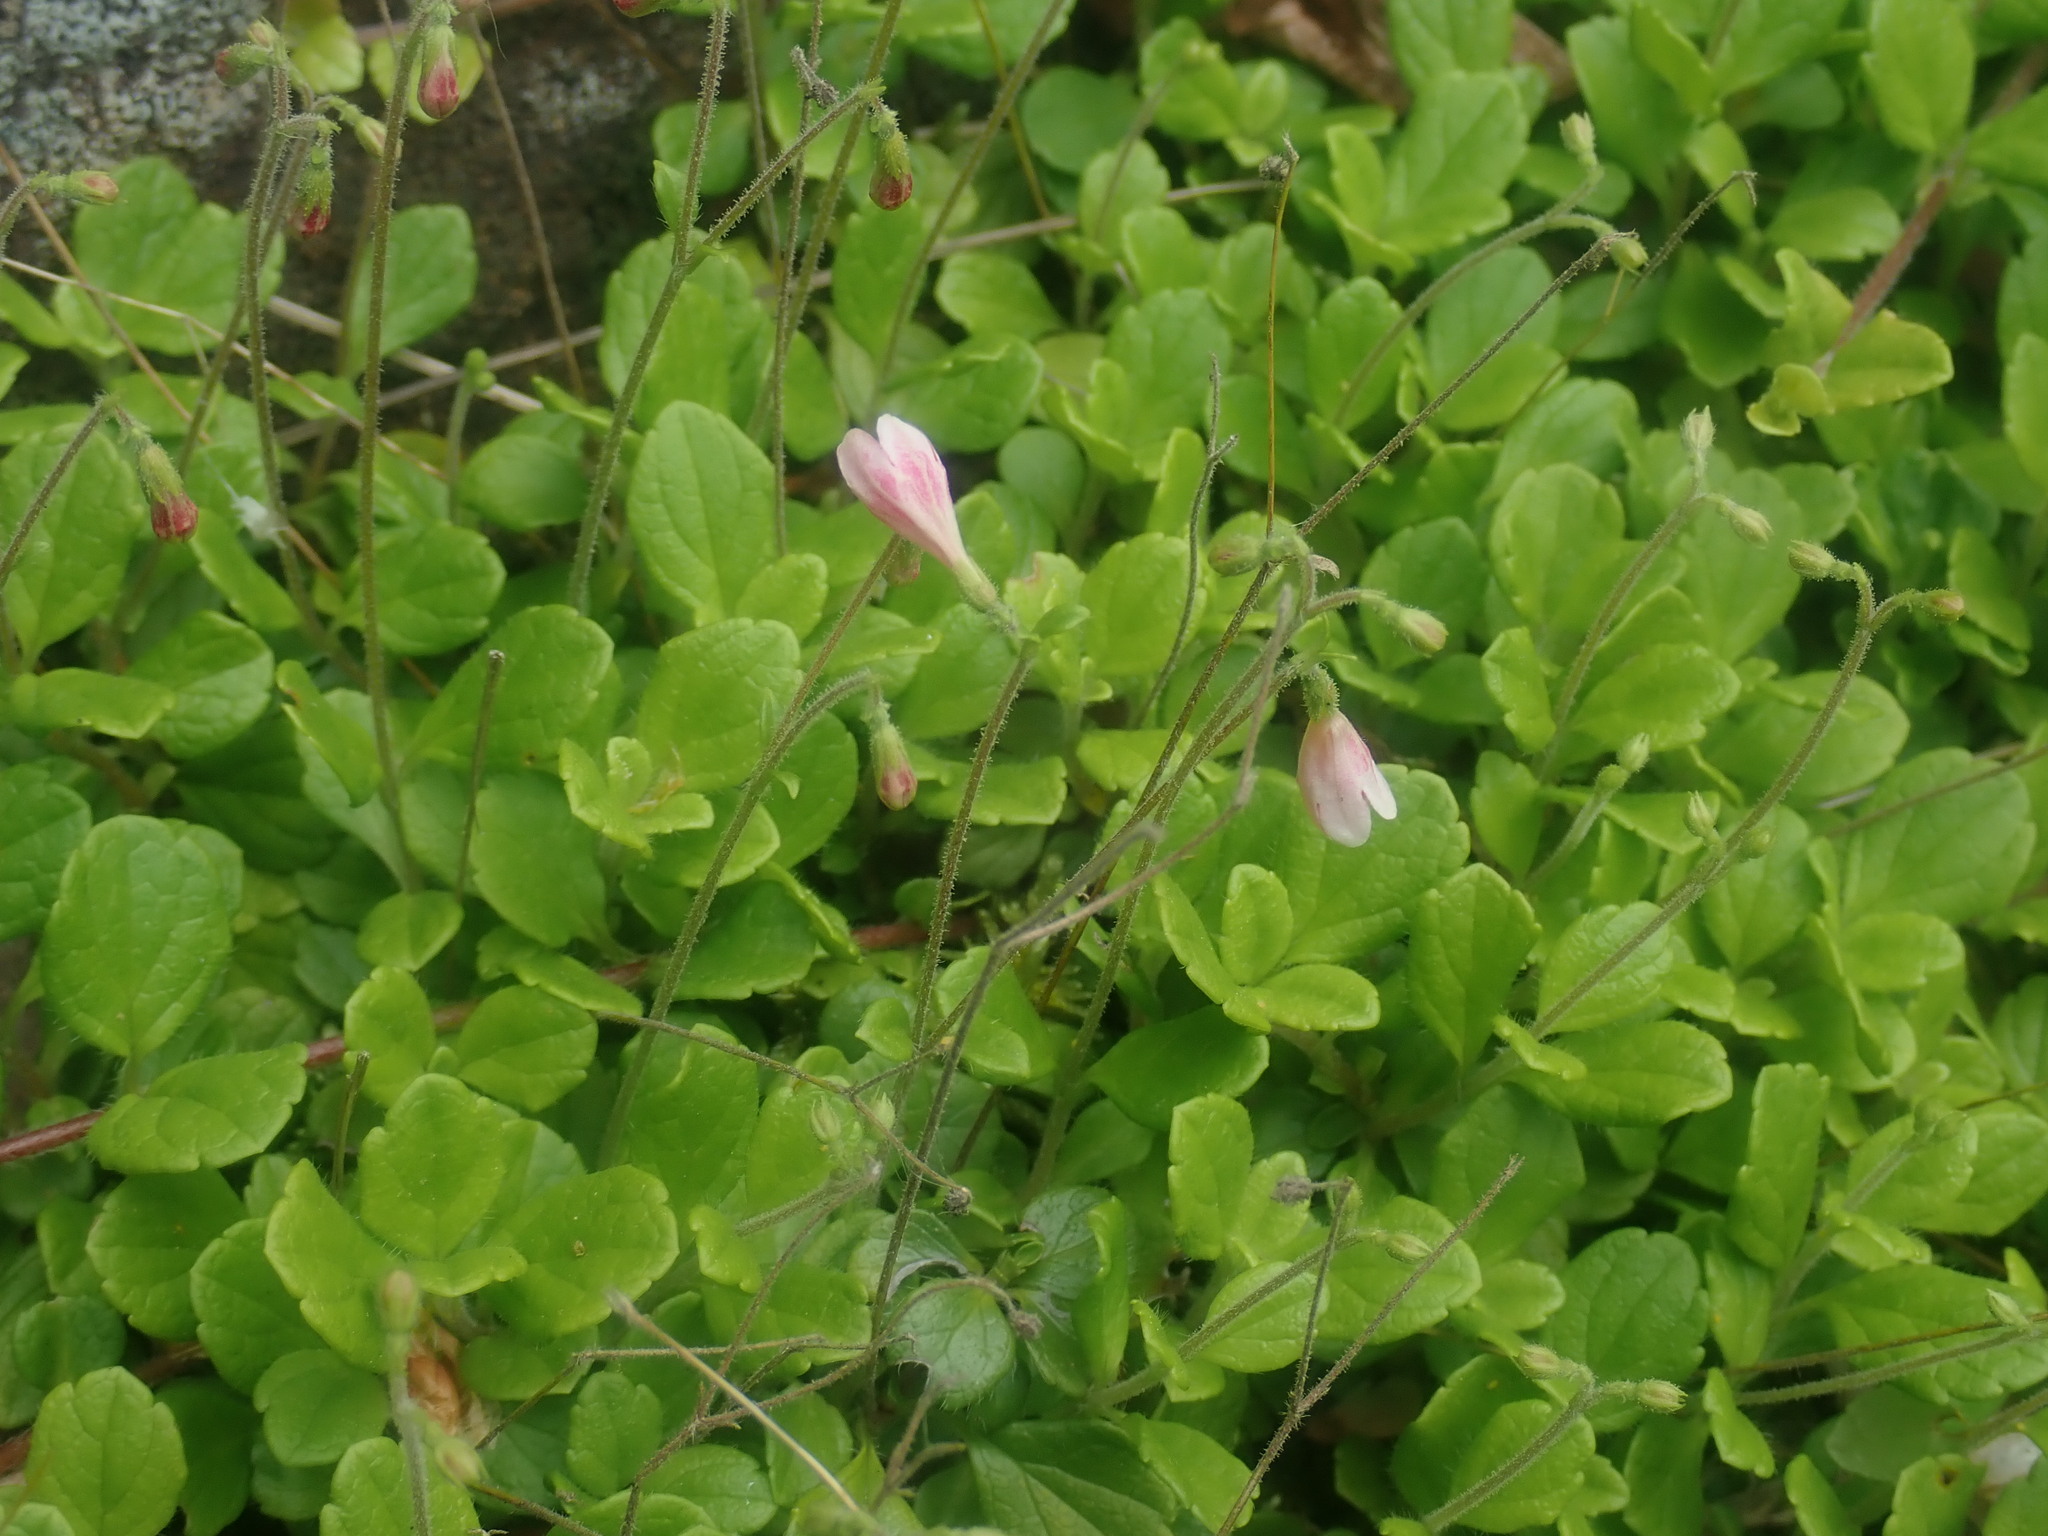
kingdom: Plantae
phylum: Tracheophyta
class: Magnoliopsida
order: Dipsacales
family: Caprifoliaceae
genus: Linnaea
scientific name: Linnaea borealis
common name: Twinflower
